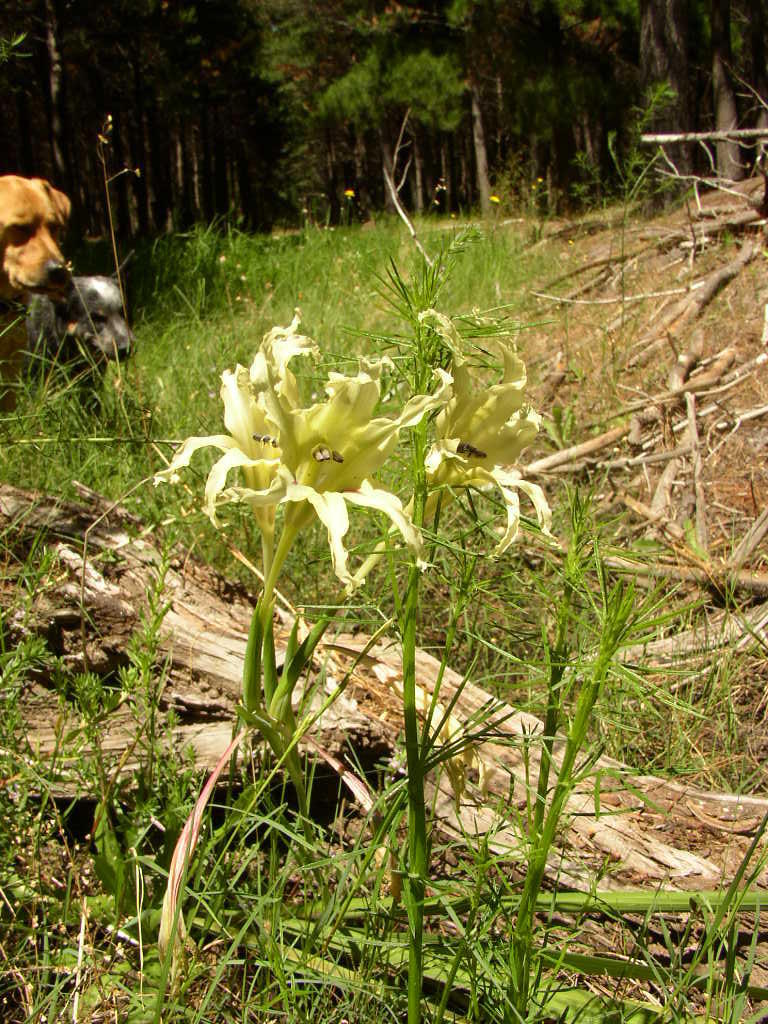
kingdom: Plantae
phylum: Tracheophyta
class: Liliopsida
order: Asparagales
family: Iridaceae
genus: Gladiolus
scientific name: Gladiolus undulatus
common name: Large painted-lady
